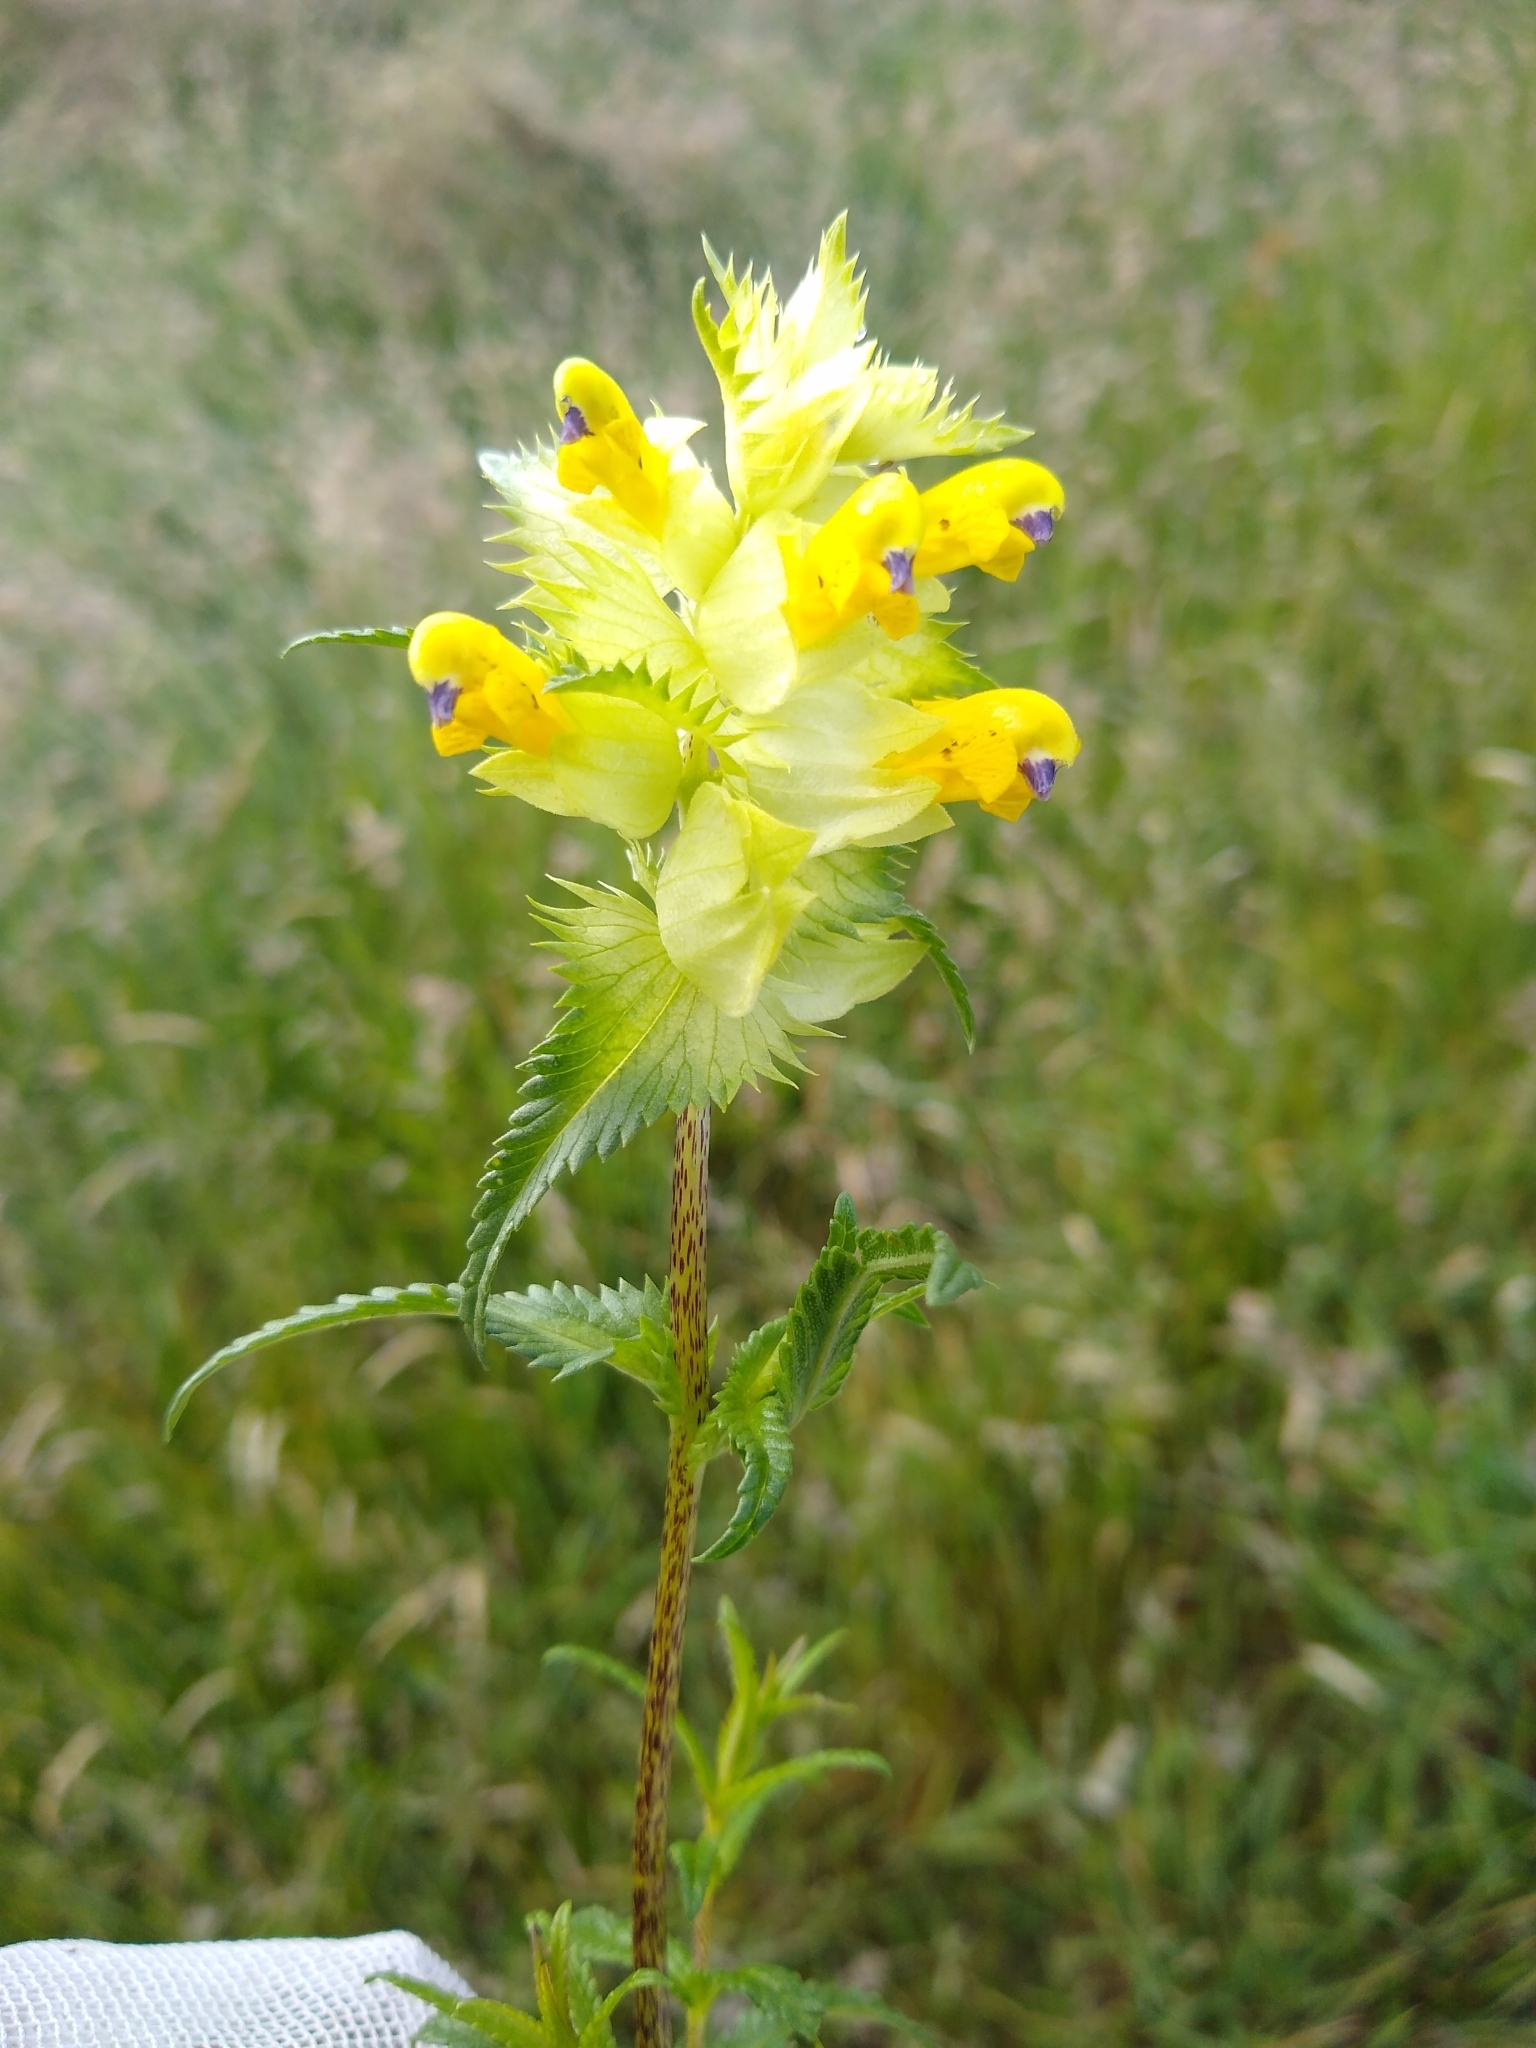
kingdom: Plantae
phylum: Tracheophyta
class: Magnoliopsida
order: Lamiales
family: Orobanchaceae
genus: Rhinanthus
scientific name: Rhinanthus serotinus
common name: Late-flowering yellow rattle
